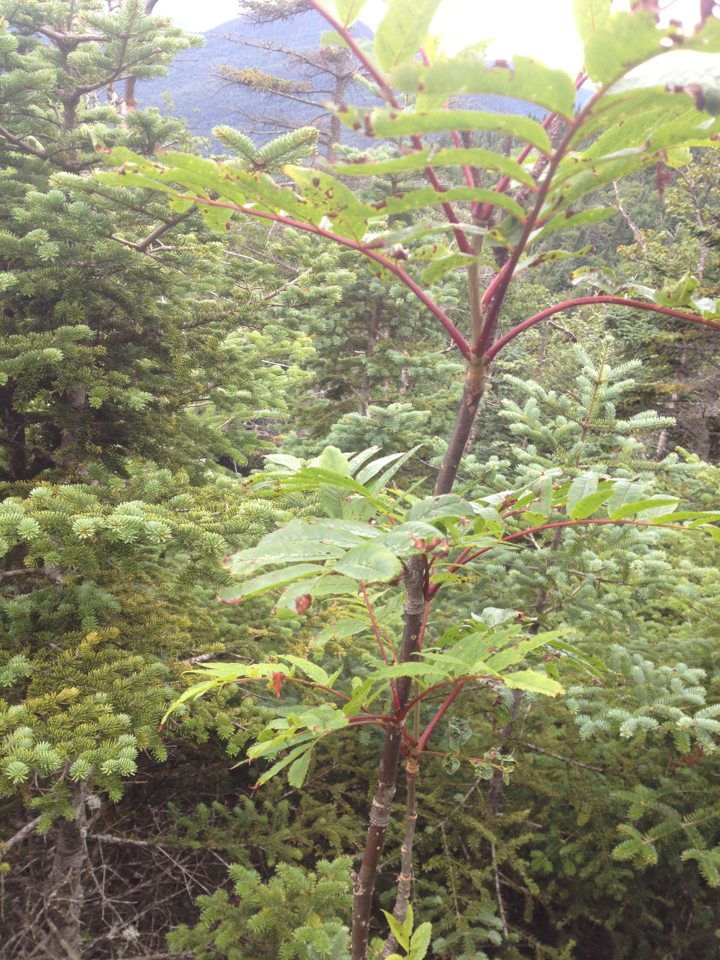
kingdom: Plantae
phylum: Tracheophyta
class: Magnoliopsida
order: Rosales
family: Rosaceae
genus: Sorbus
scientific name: Sorbus americana
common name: American mountain-ash
